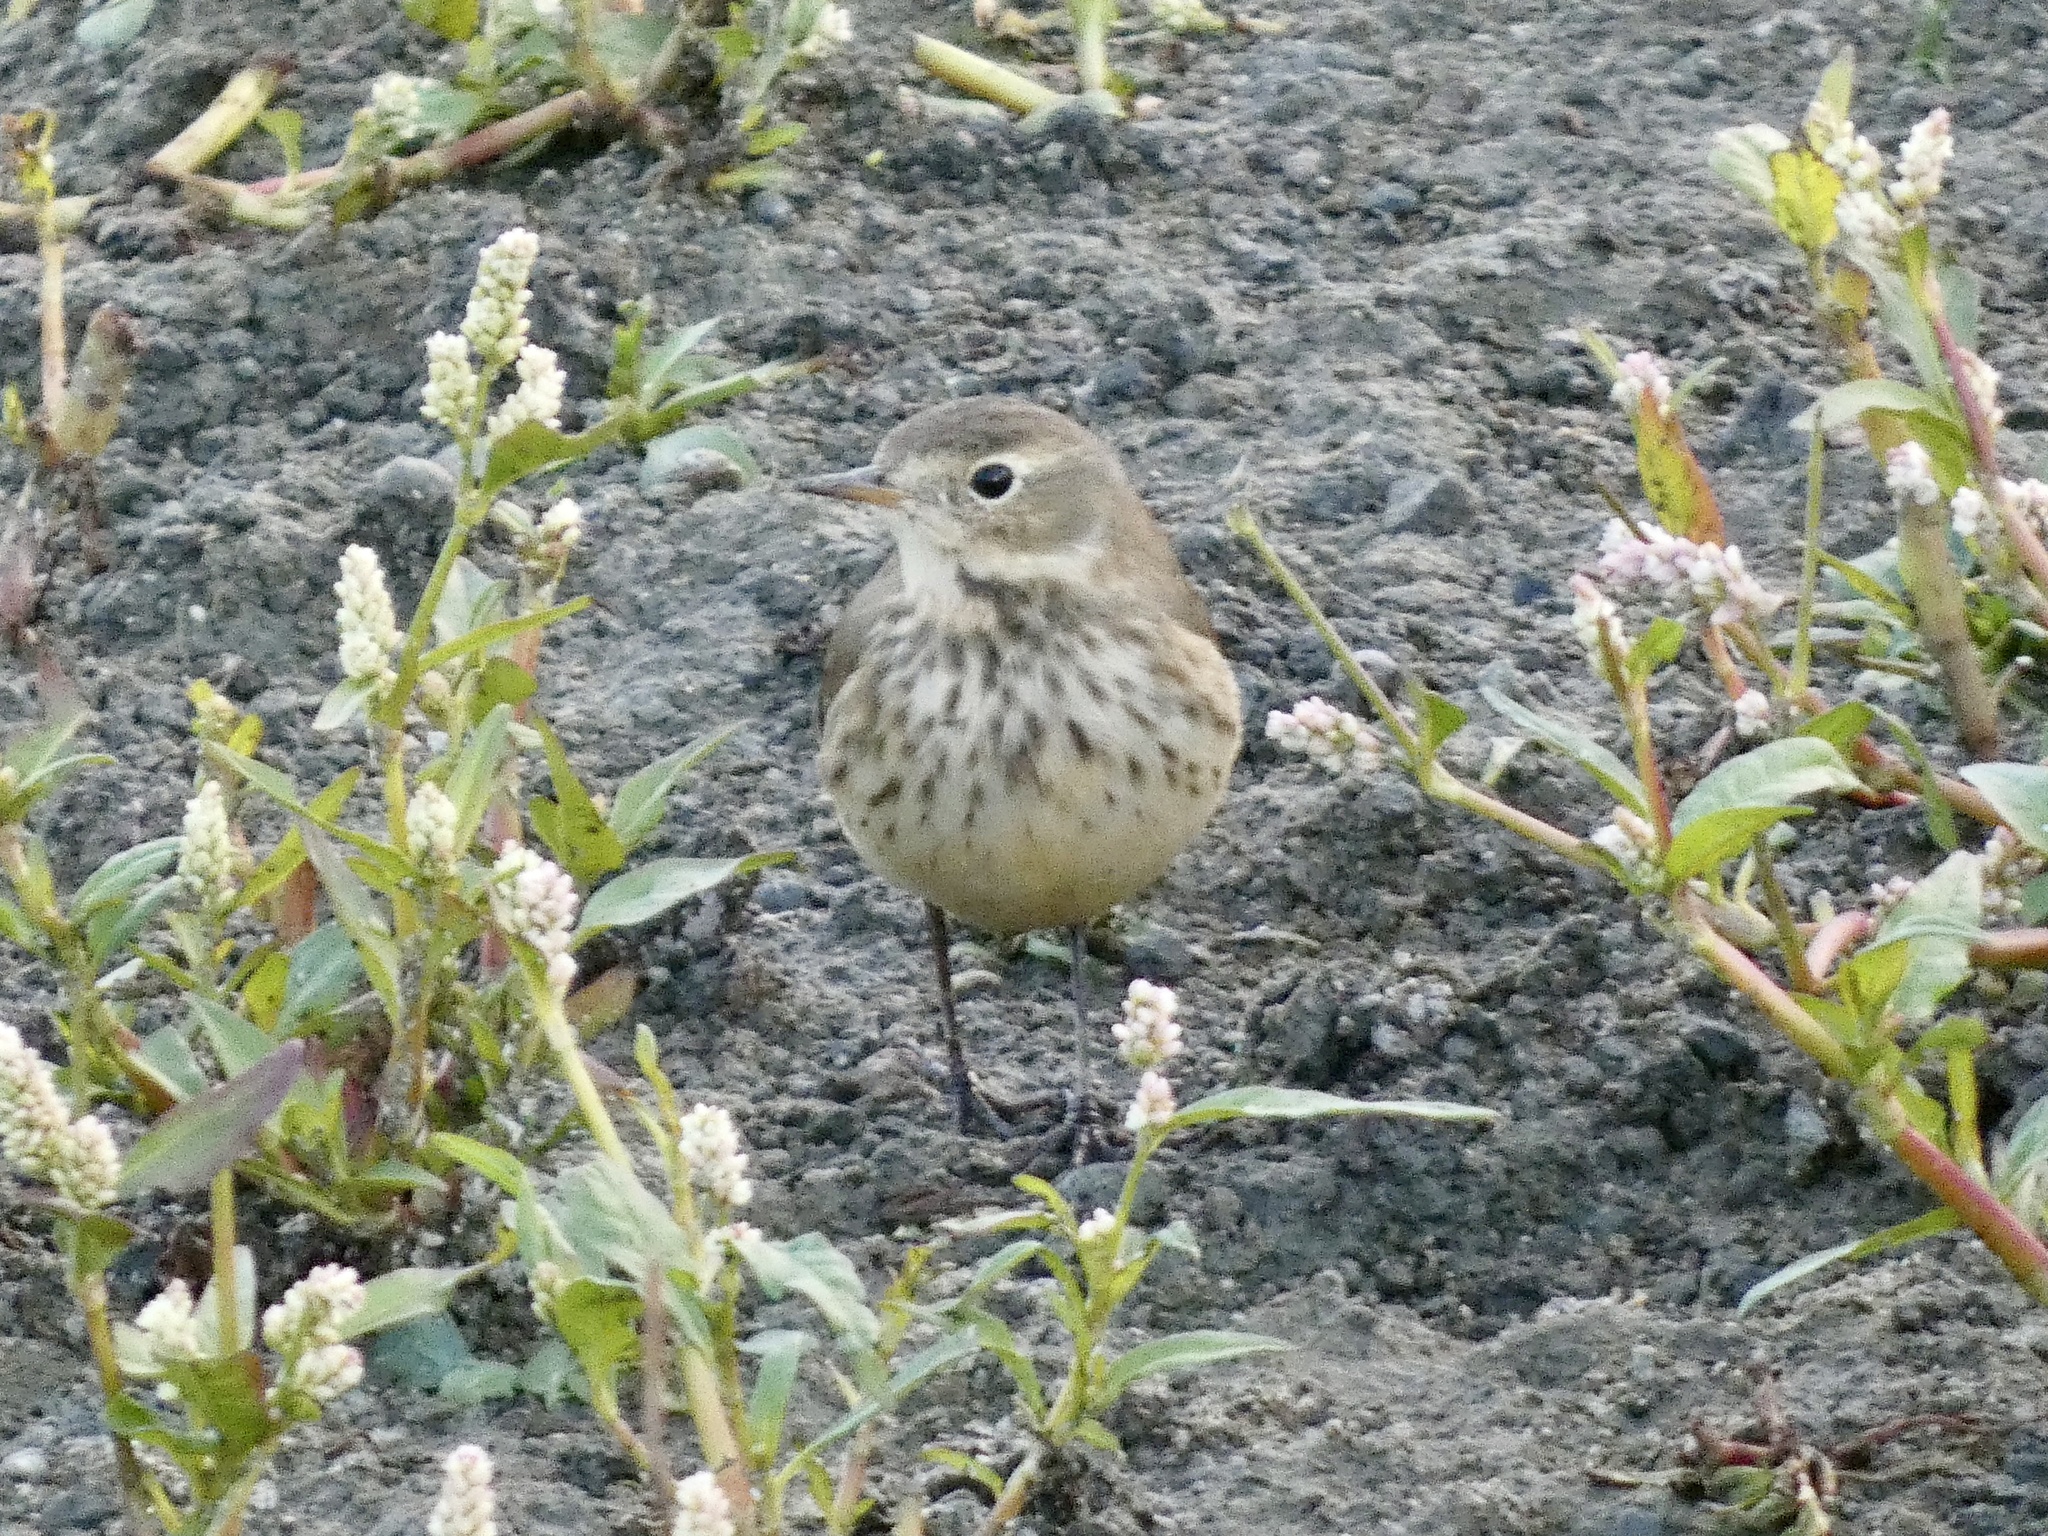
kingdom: Animalia
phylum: Chordata
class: Aves
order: Passeriformes
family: Motacillidae
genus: Anthus
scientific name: Anthus rubescens
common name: Buff-bellied pipit
